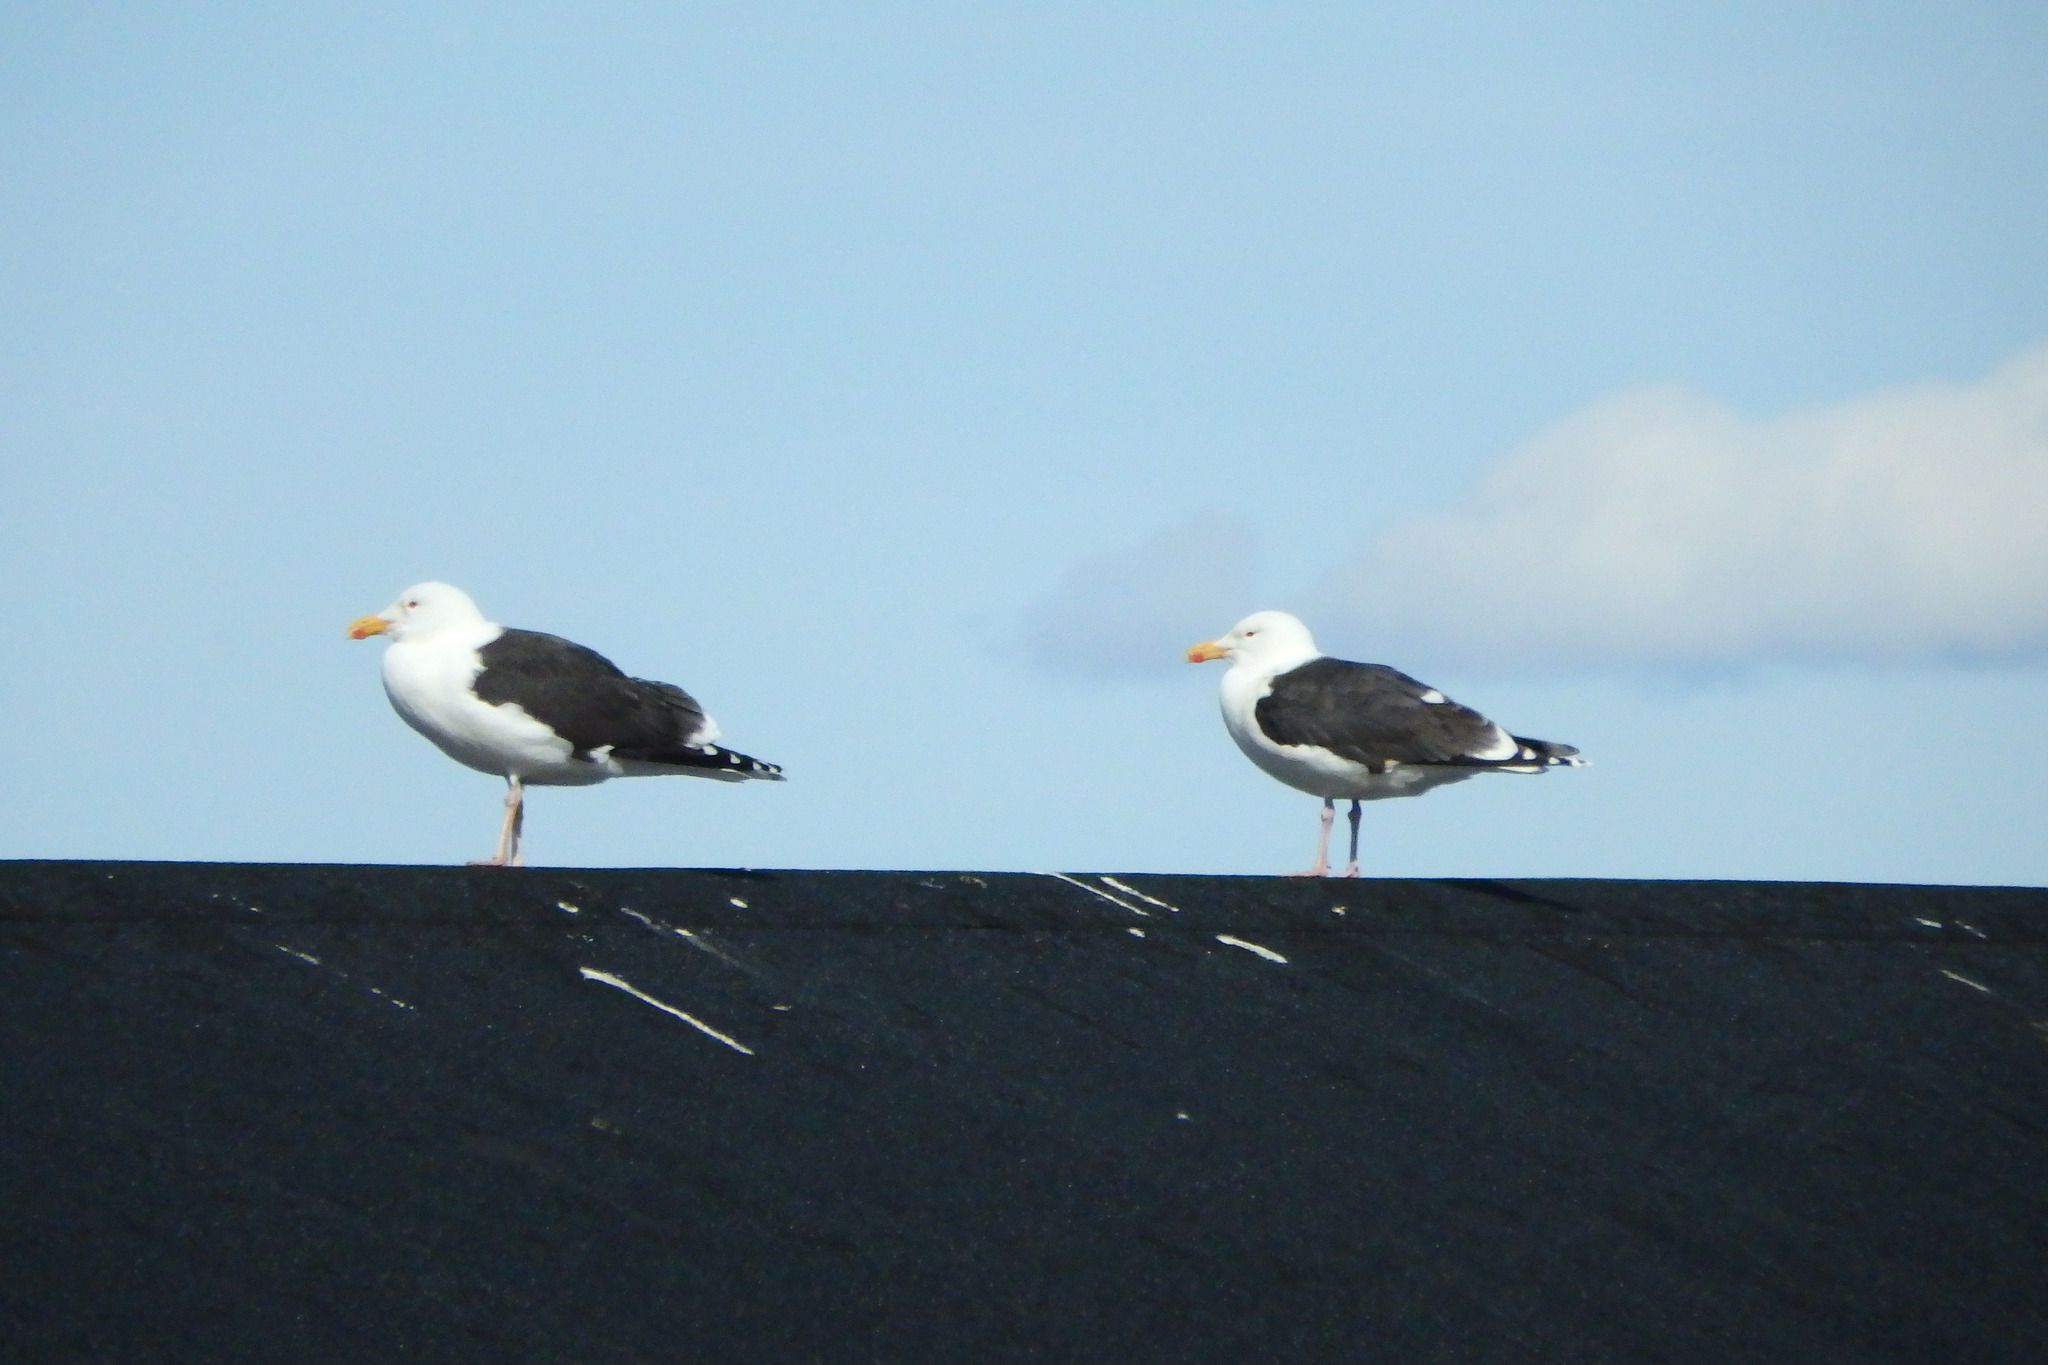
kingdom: Animalia
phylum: Chordata
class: Aves
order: Charadriiformes
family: Laridae
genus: Larus
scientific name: Larus marinus
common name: Great black-backed gull
